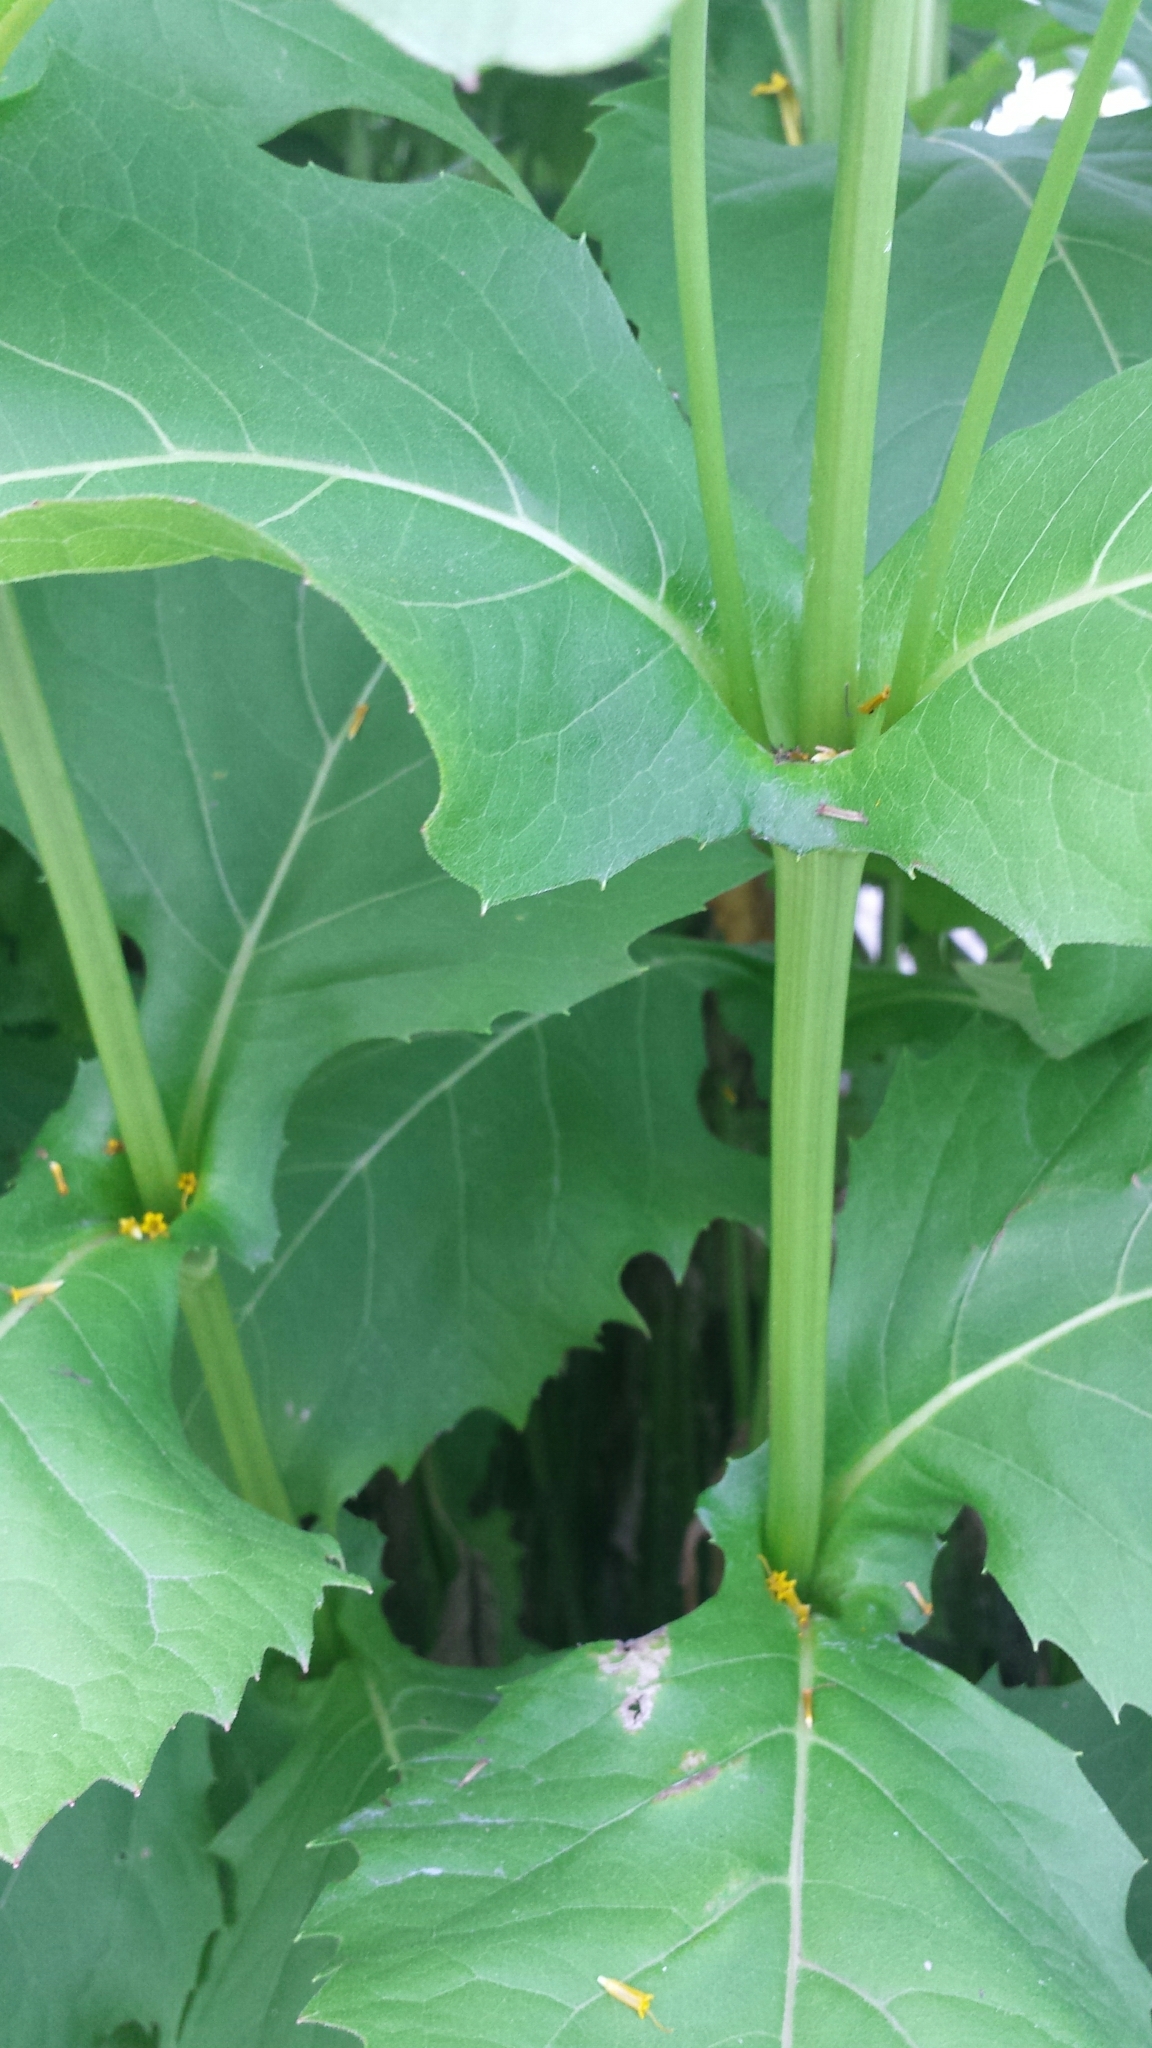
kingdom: Plantae
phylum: Tracheophyta
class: Magnoliopsida
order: Asterales
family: Asteraceae
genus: Silphium
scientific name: Silphium perfoliatum
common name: Cup-plant
